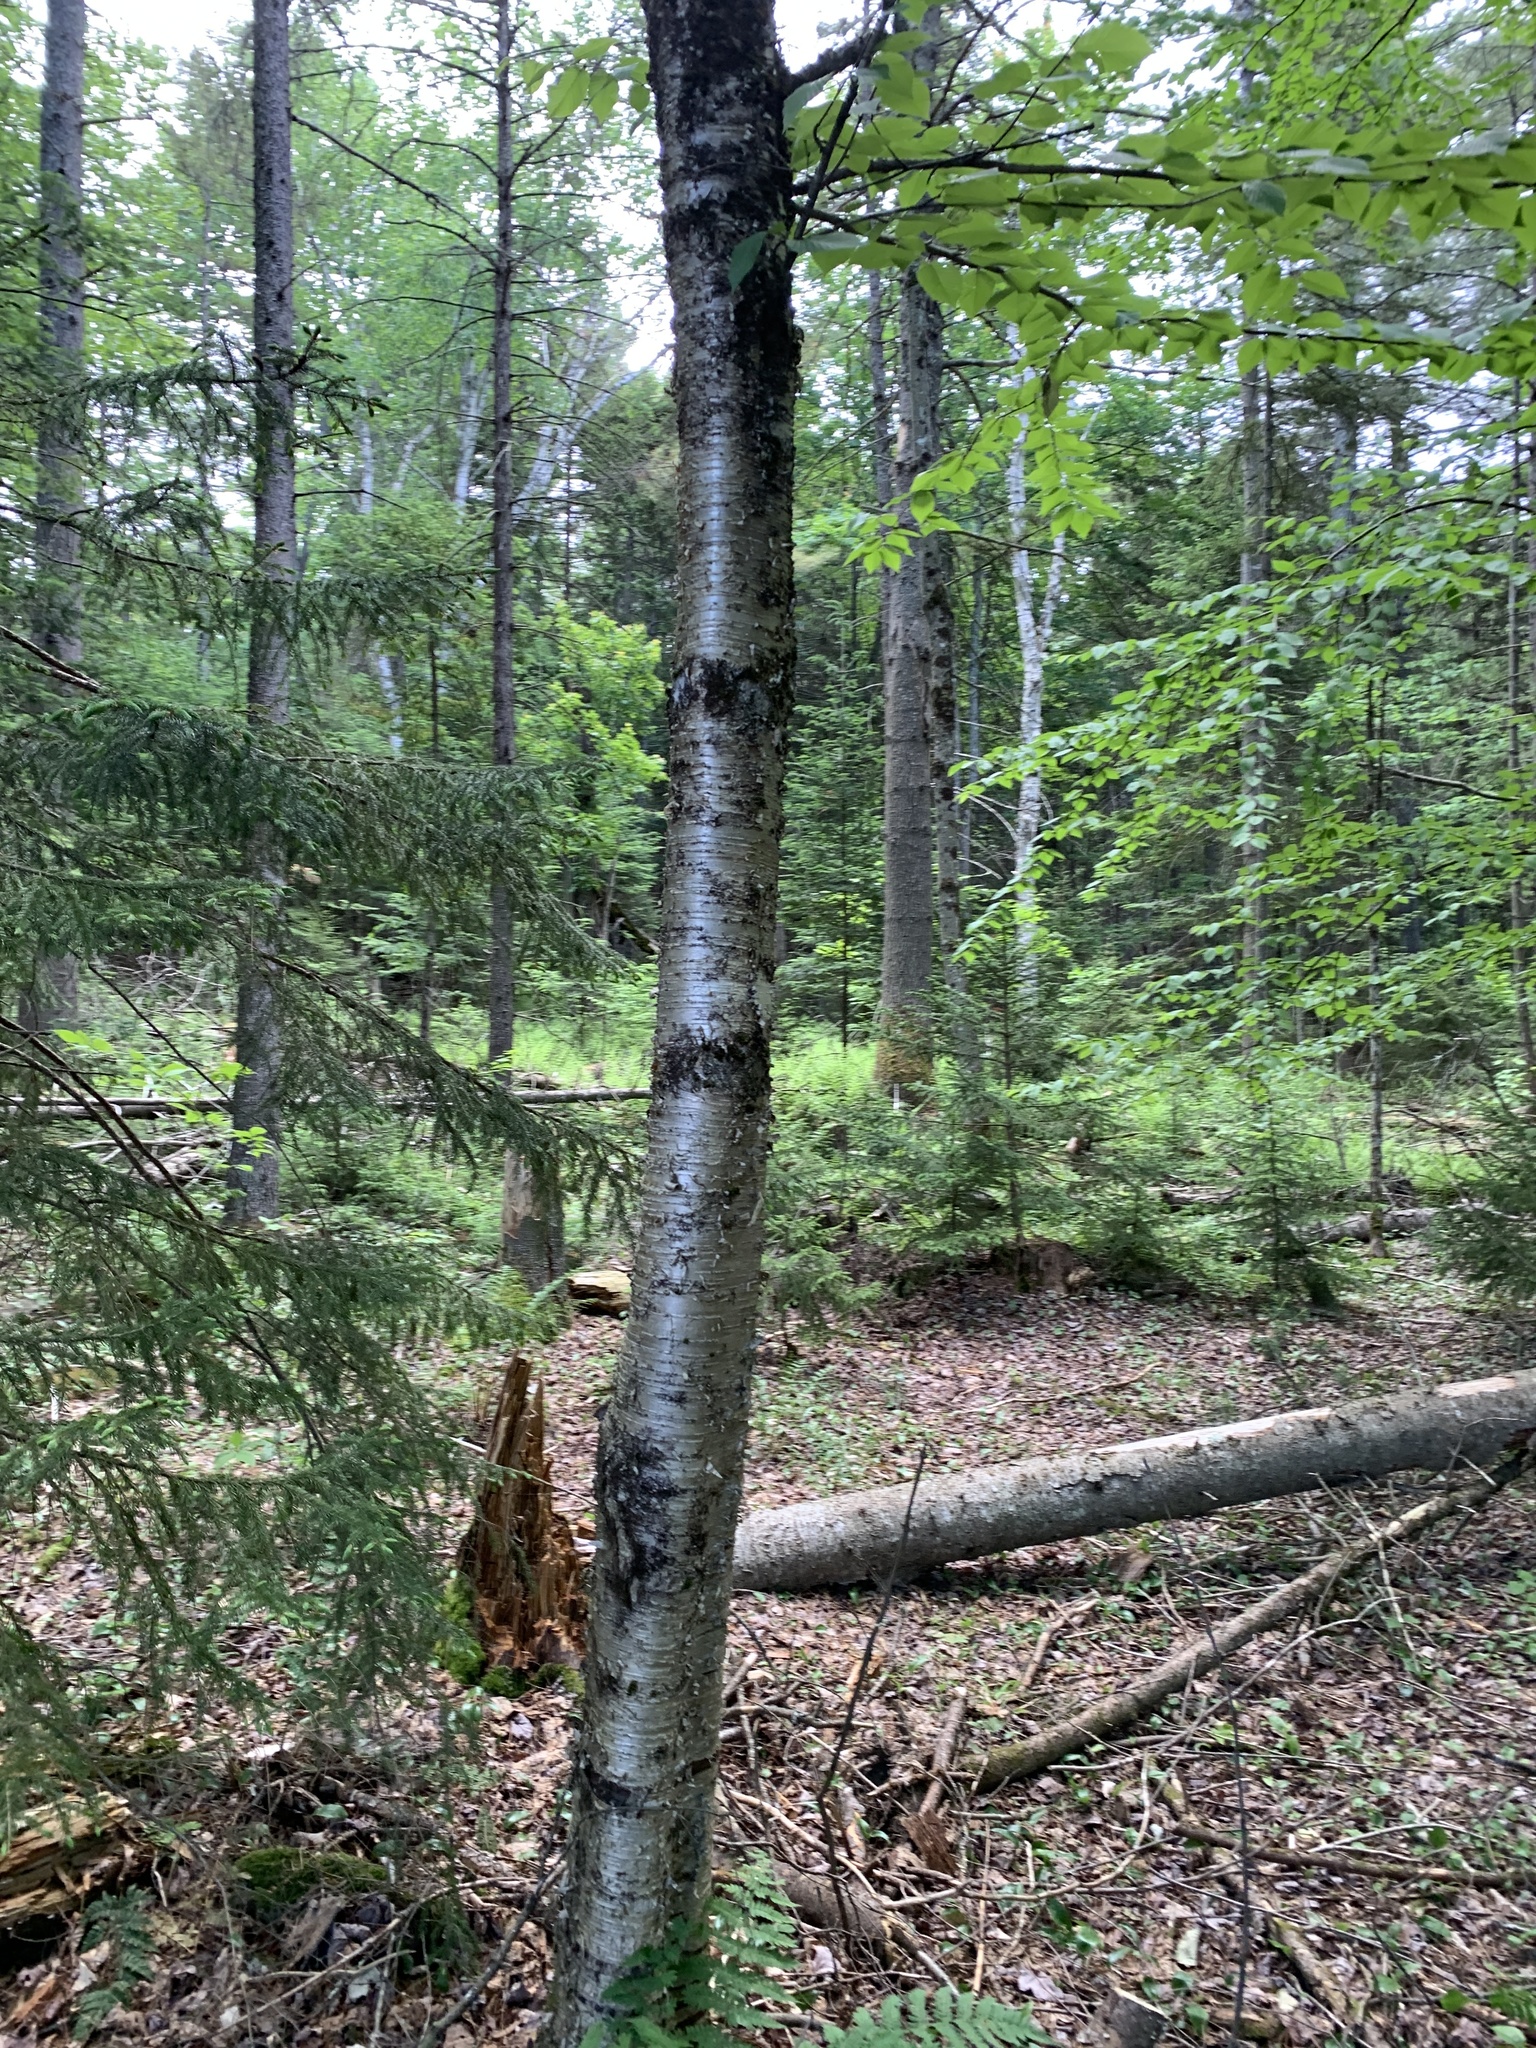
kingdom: Plantae
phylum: Tracheophyta
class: Magnoliopsida
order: Fagales
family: Betulaceae
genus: Betula
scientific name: Betula alleghaniensis
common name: Yellow birch
